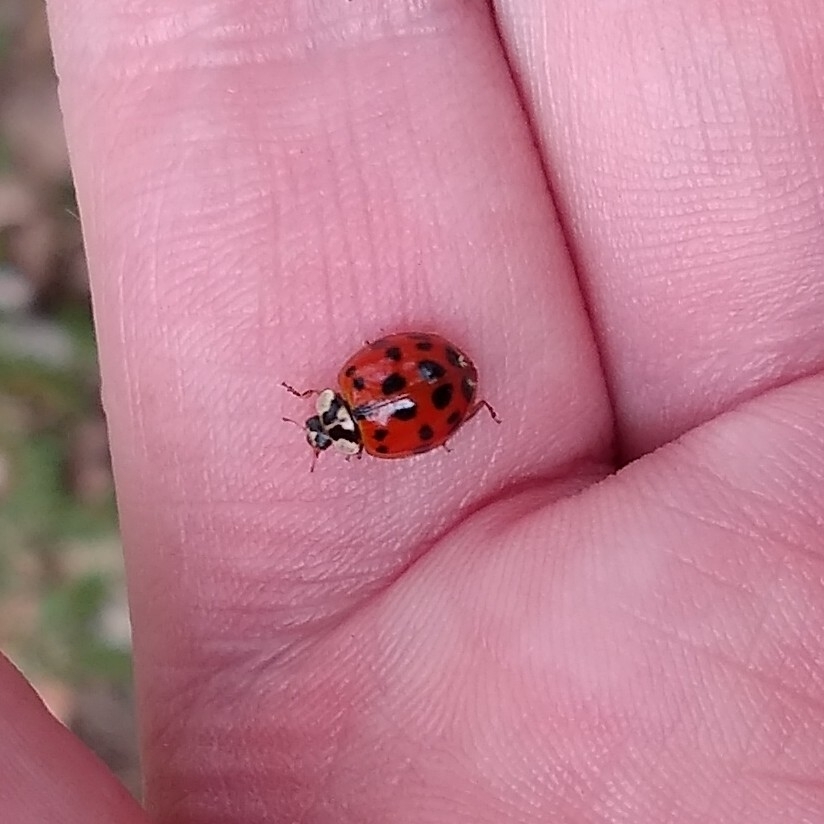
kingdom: Animalia
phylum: Arthropoda
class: Insecta
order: Coleoptera
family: Coccinellidae
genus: Harmonia
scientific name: Harmonia axyridis
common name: Harlequin ladybird
